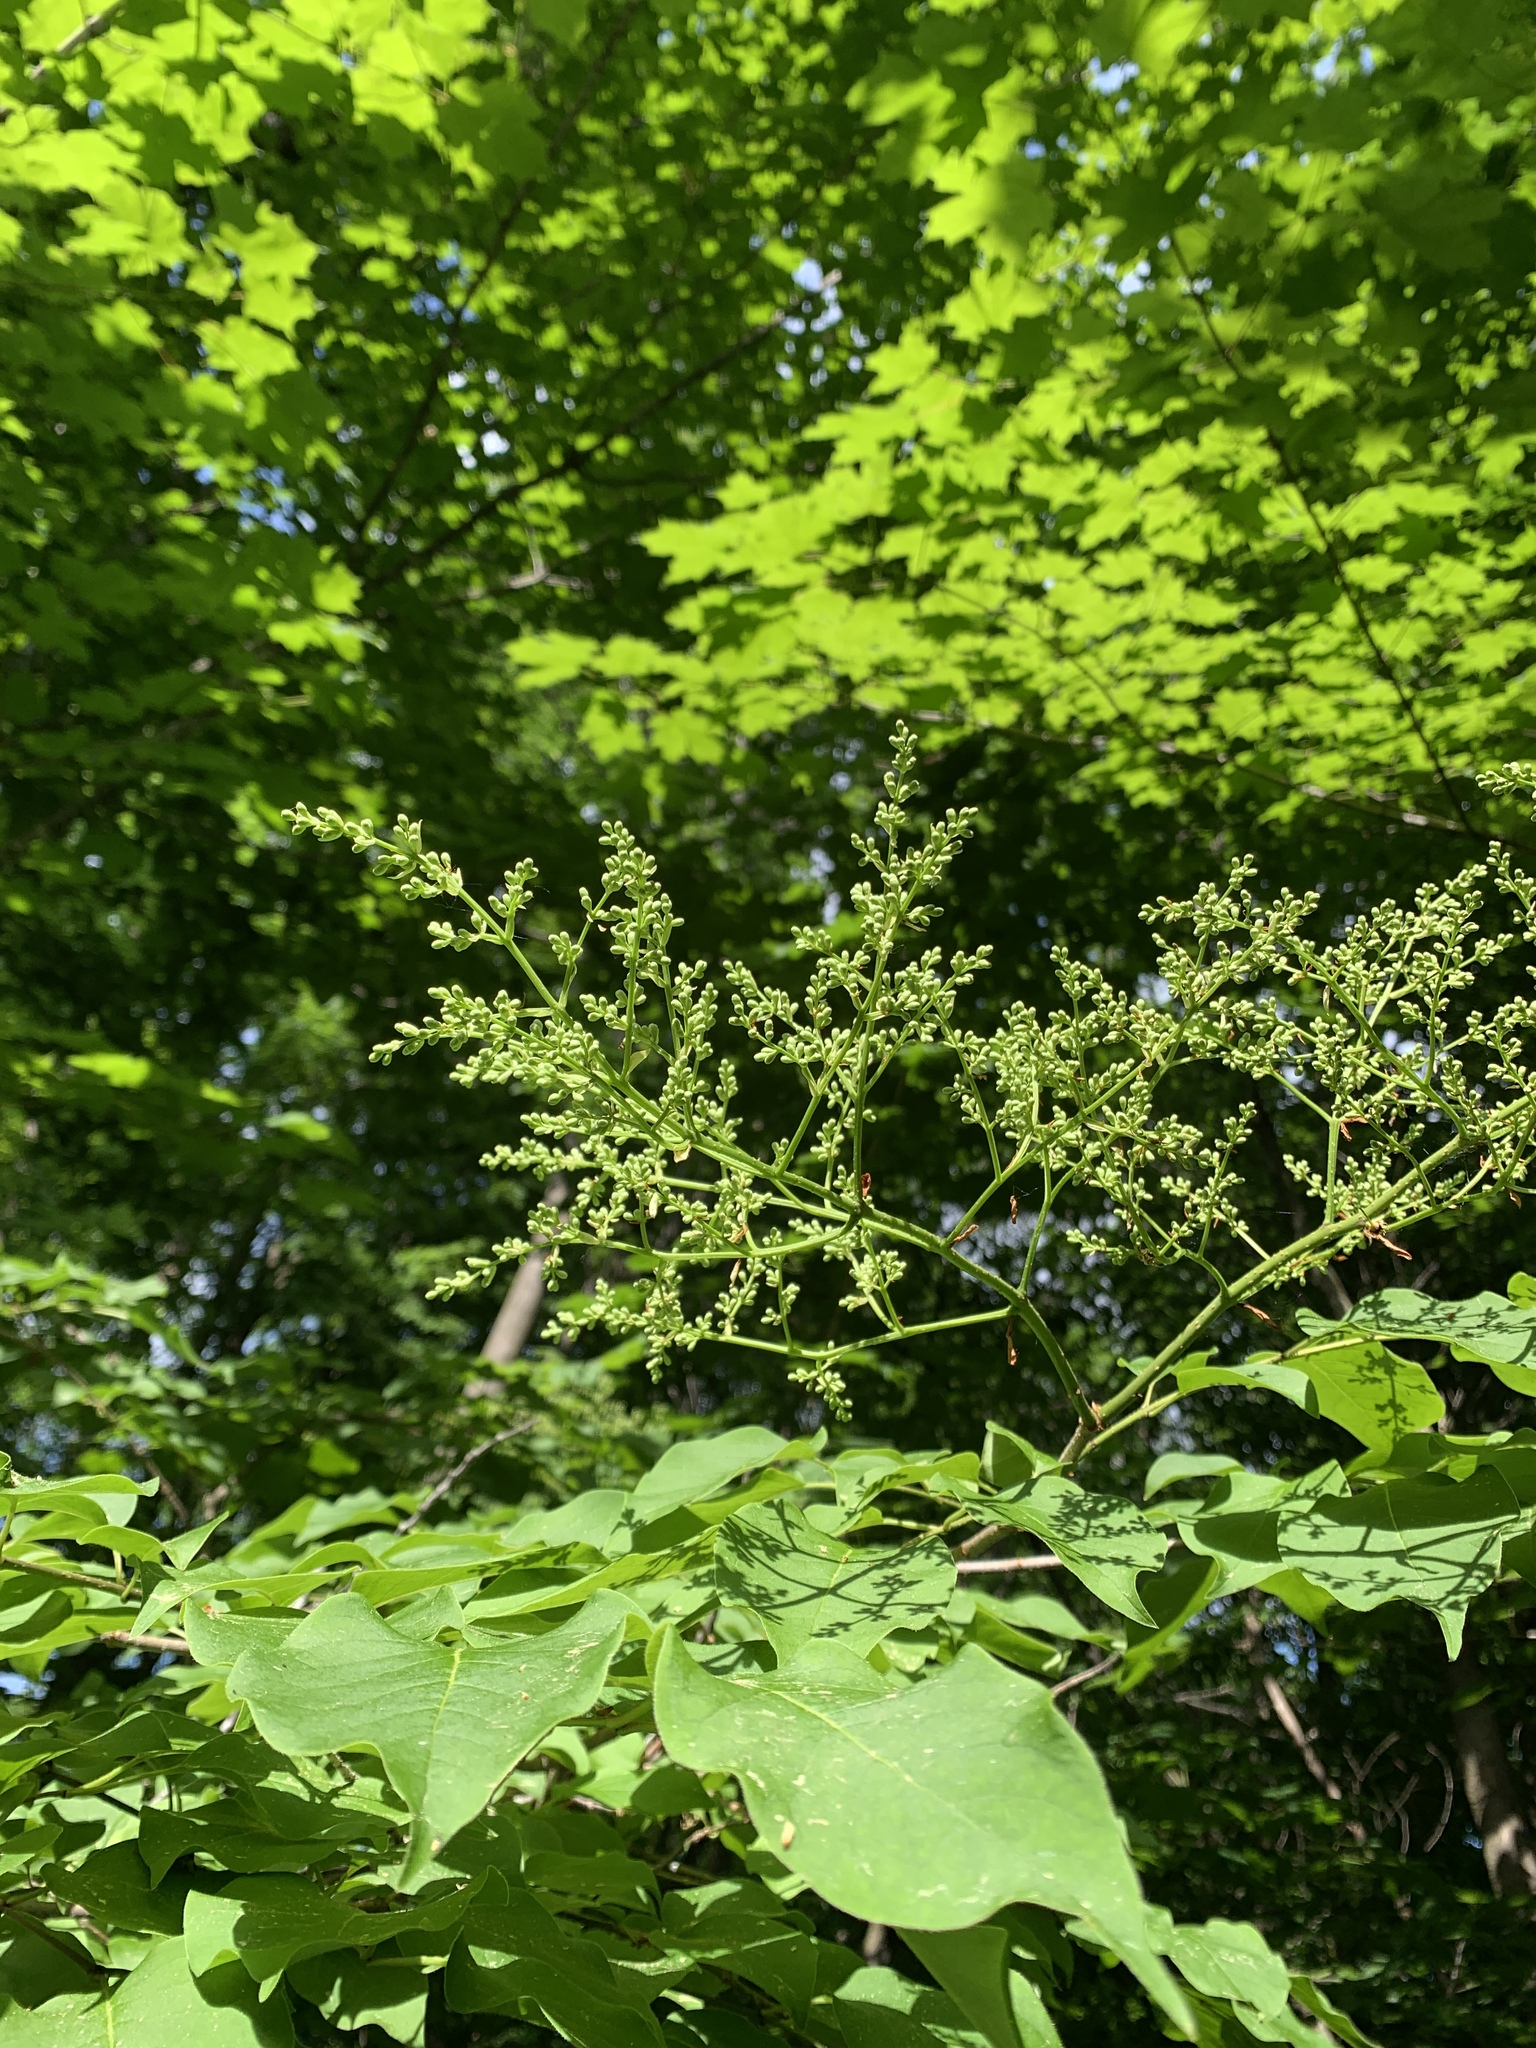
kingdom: Plantae
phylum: Tracheophyta
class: Magnoliopsida
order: Lamiales
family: Oleaceae
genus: Syringa
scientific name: Syringa reticulata
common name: Japanese tree lilac
